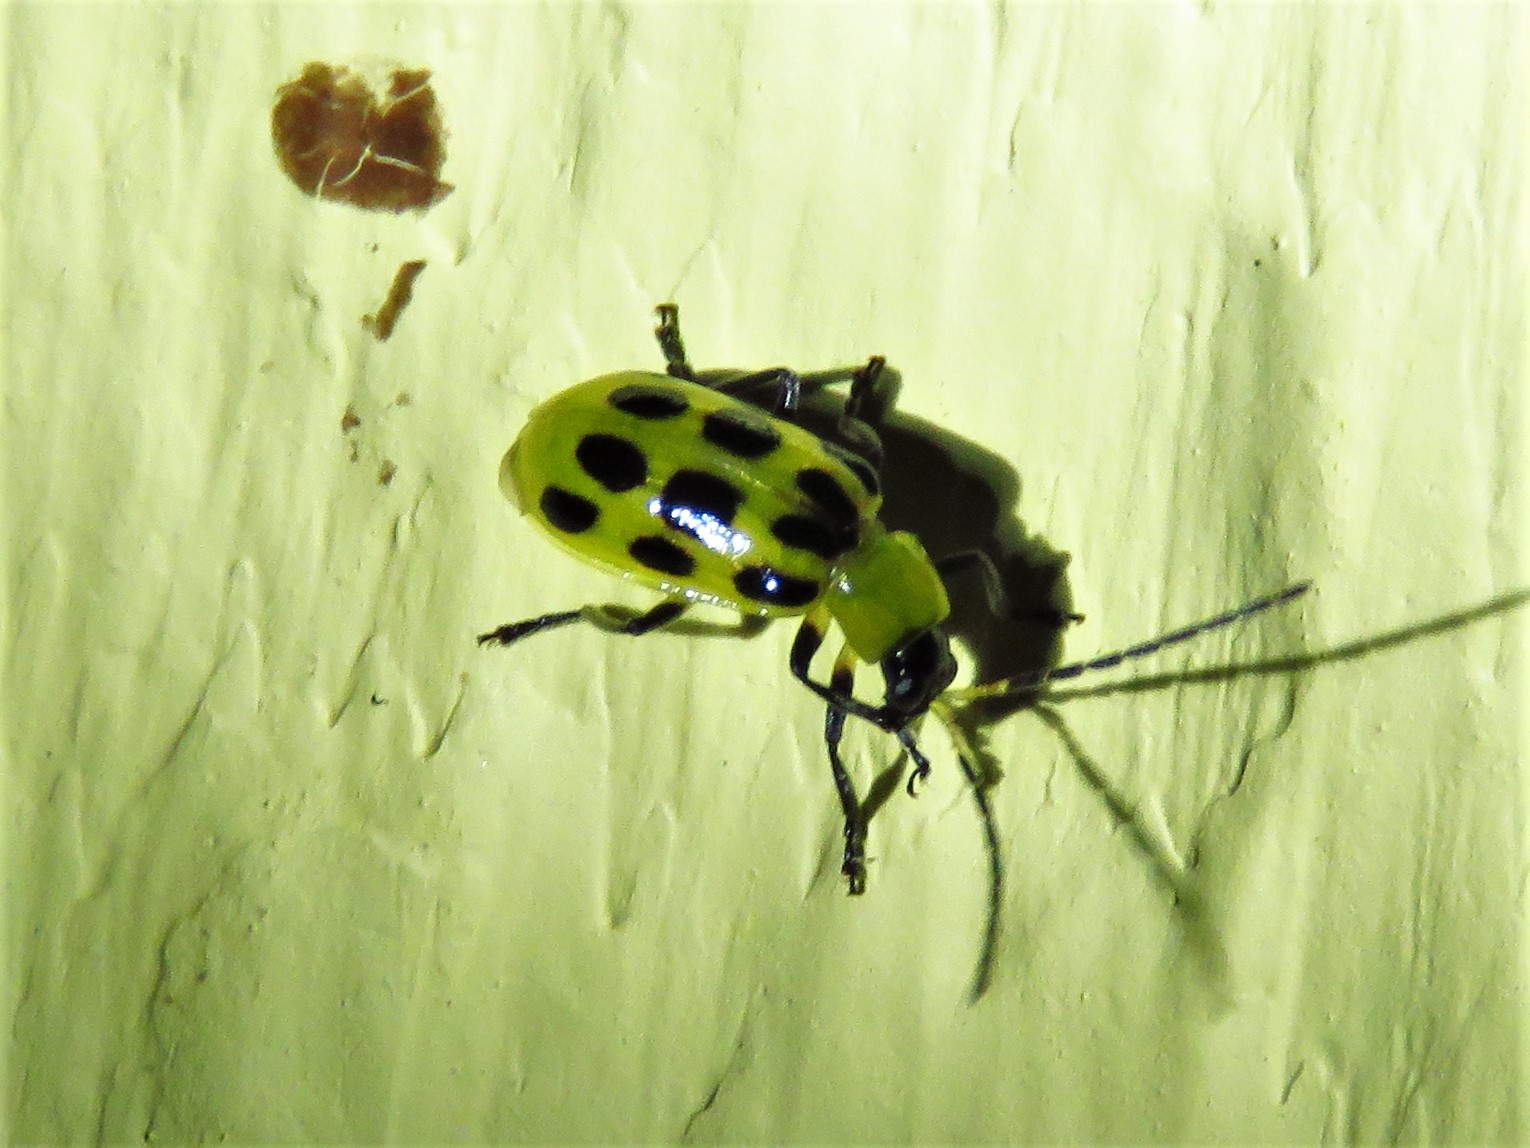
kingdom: Animalia
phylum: Arthropoda
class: Insecta
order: Coleoptera
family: Chrysomelidae
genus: Diabrotica
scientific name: Diabrotica undecimpunctata
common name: Spotted cucumber beetle
